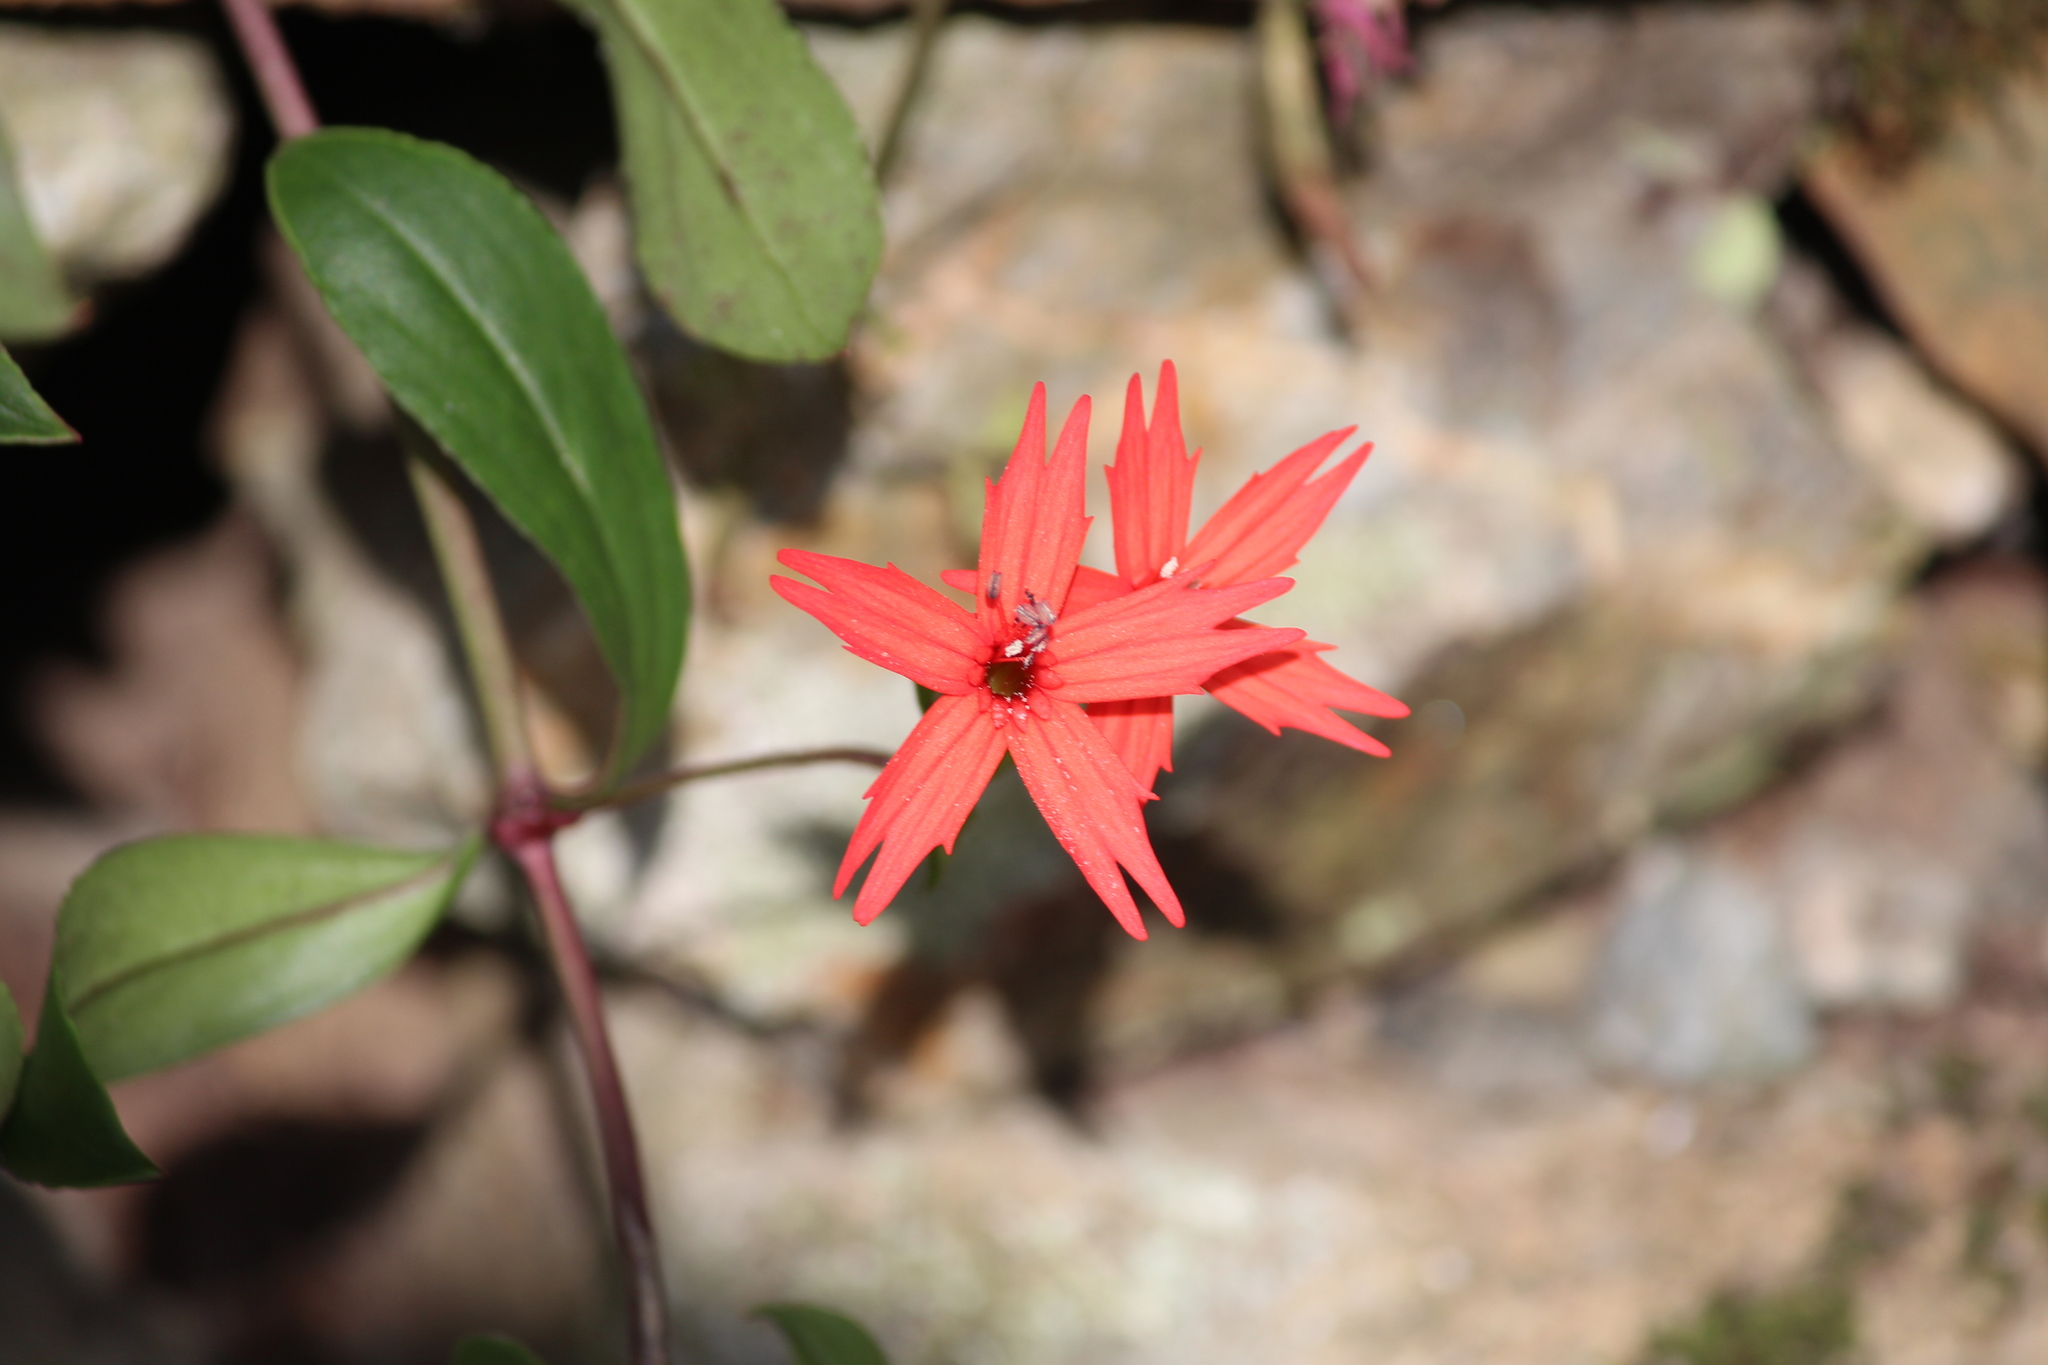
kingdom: Plantae
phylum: Tracheophyta
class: Magnoliopsida
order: Caryophyllales
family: Caryophyllaceae
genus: Silene
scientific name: Silene virginica
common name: Fire-pink
